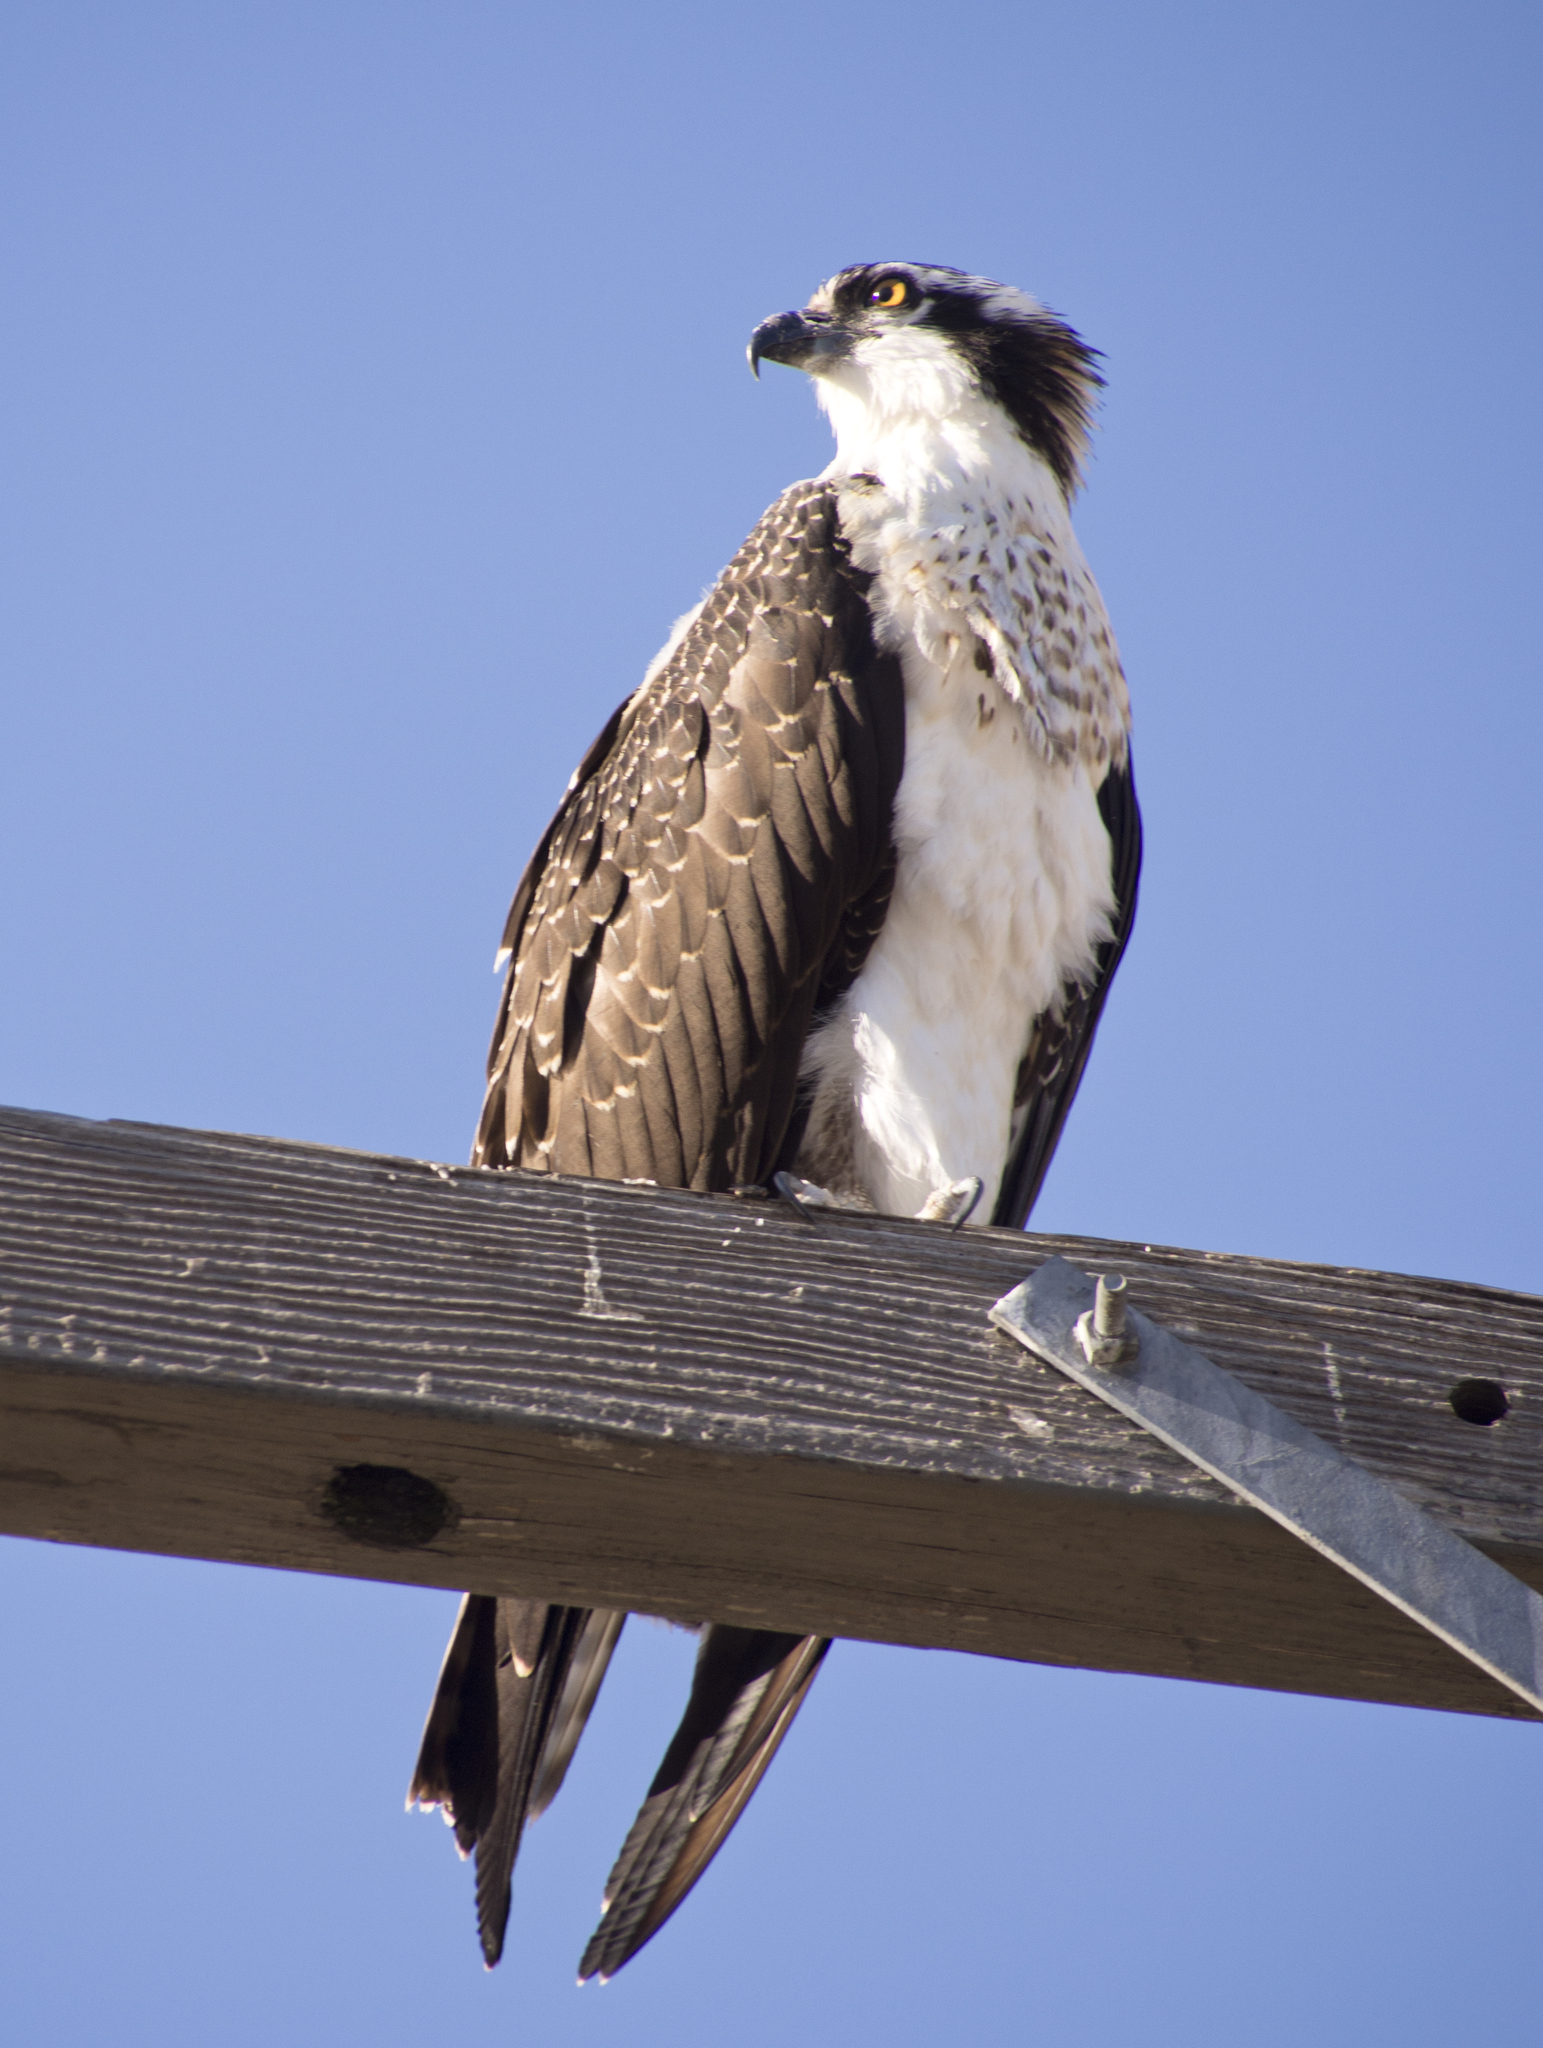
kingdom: Animalia
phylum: Chordata
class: Aves
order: Accipitriformes
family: Pandionidae
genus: Pandion
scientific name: Pandion haliaetus
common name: Osprey
